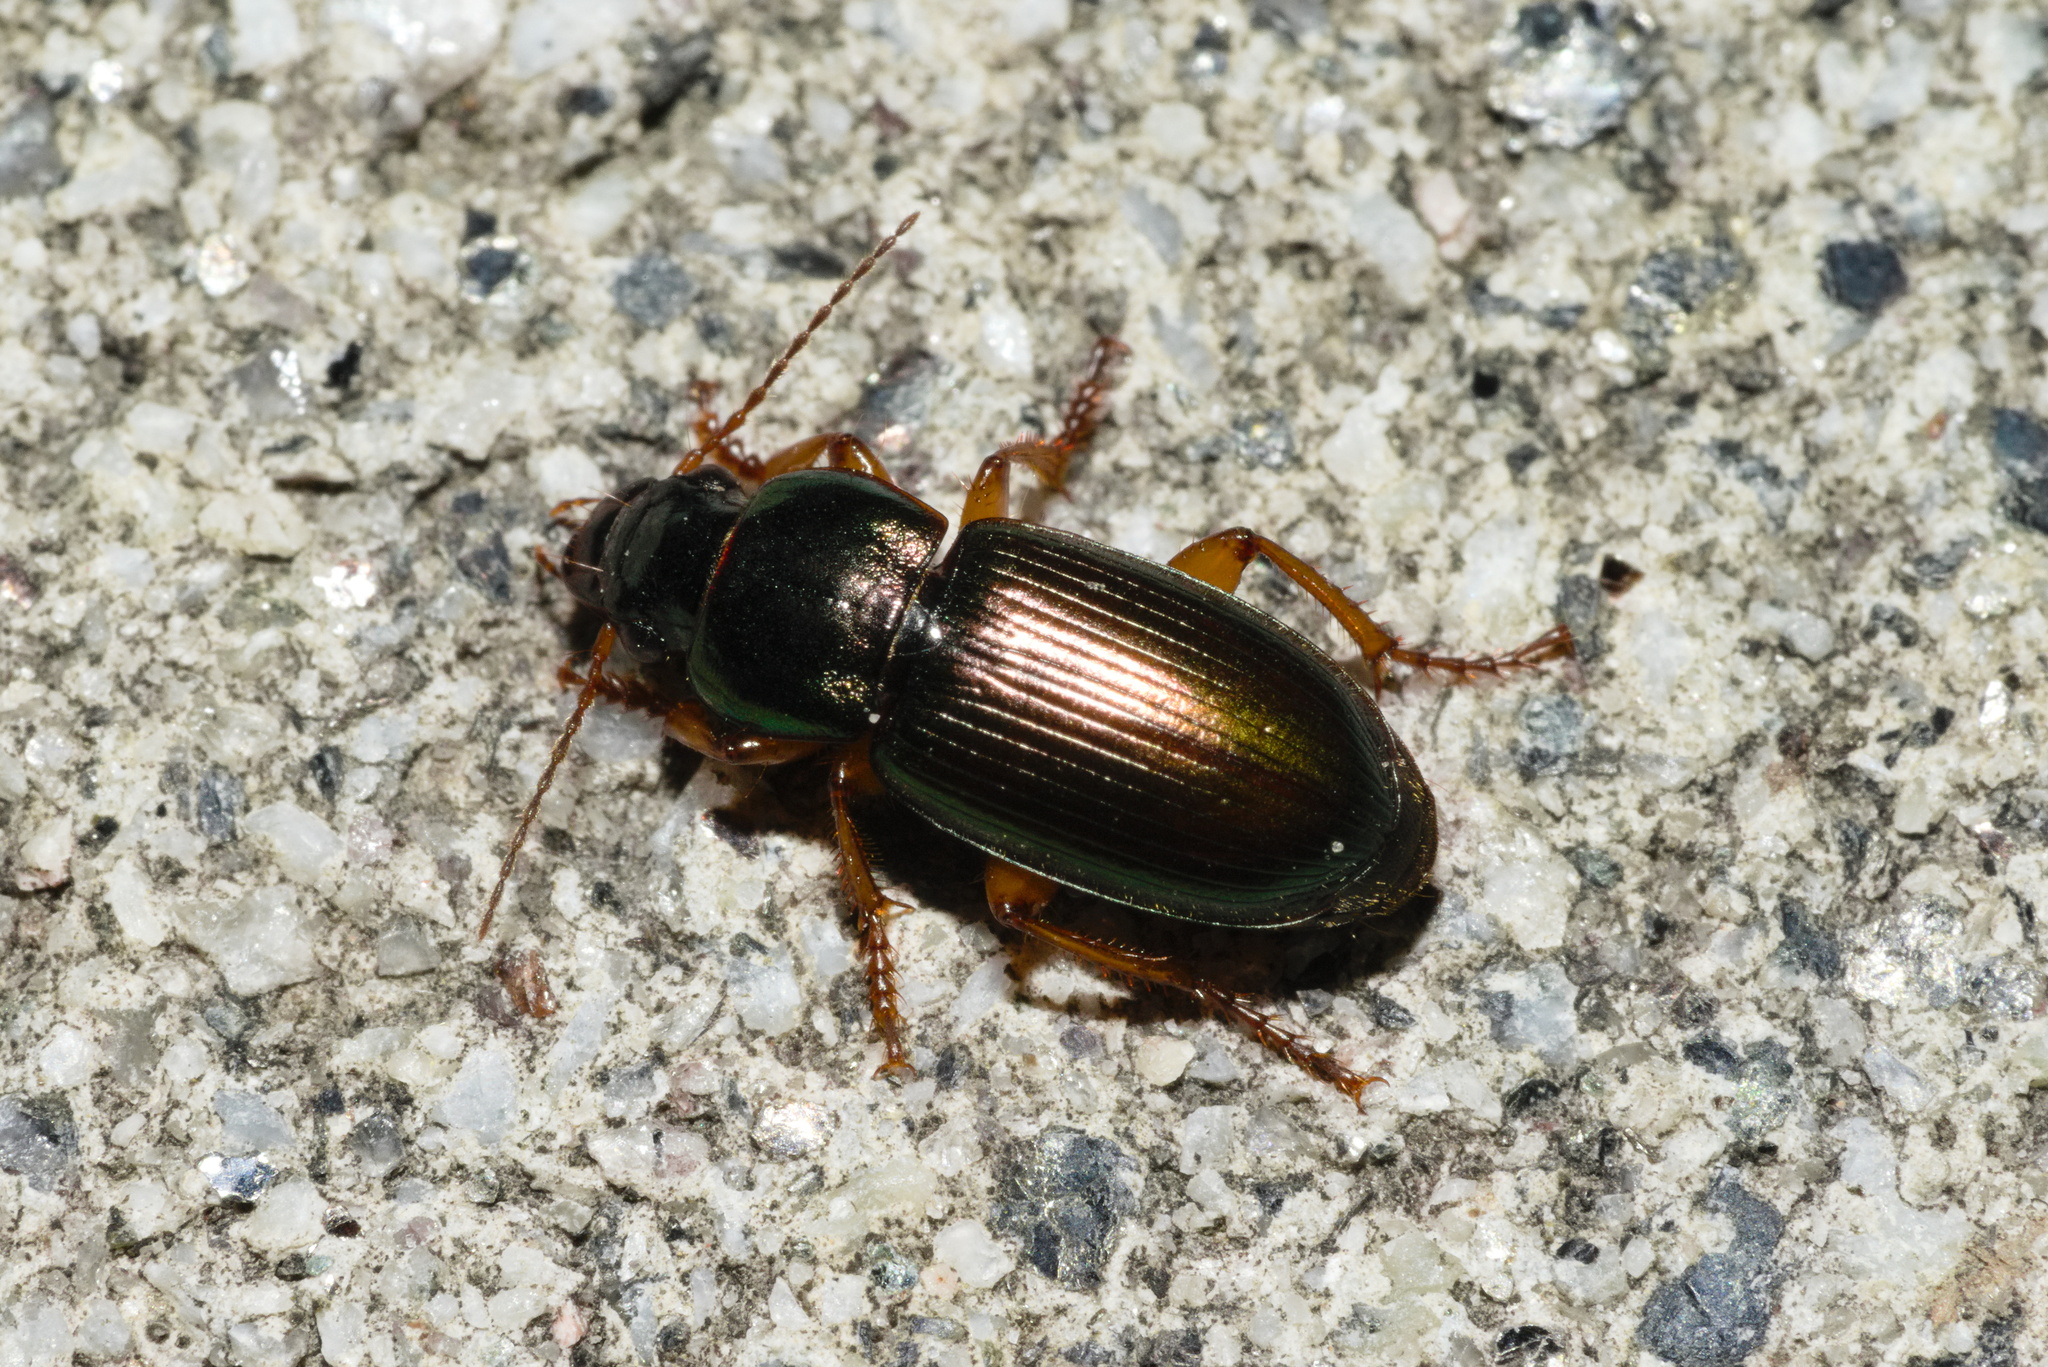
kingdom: Animalia
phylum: Arthropoda
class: Insecta
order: Coleoptera
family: Carabidae
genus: Harpalus
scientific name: Harpalus affinis
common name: Polychrome harp ground beetle
